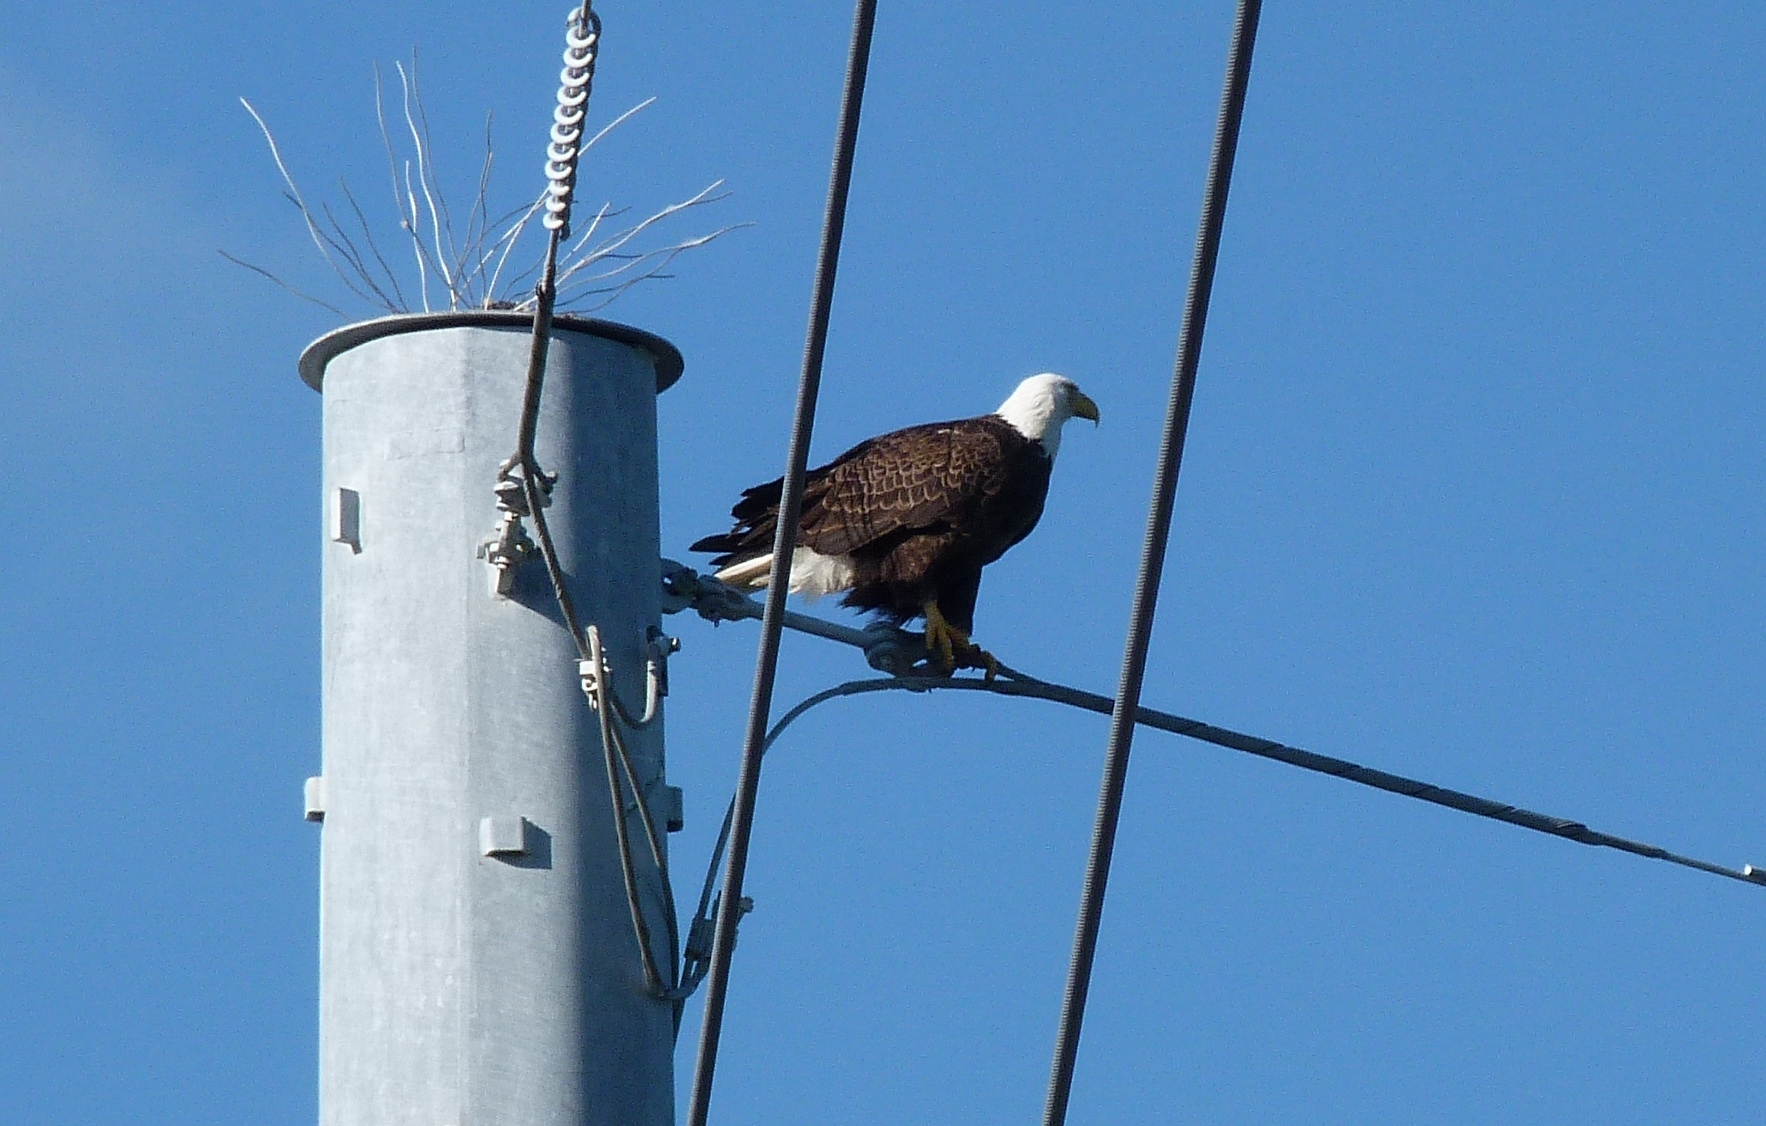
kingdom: Animalia
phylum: Chordata
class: Aves
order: Accipitriformes
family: Accipitridae
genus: Haliaeetus
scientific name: Haliaeetus leucocephalus
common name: Bald eagle
